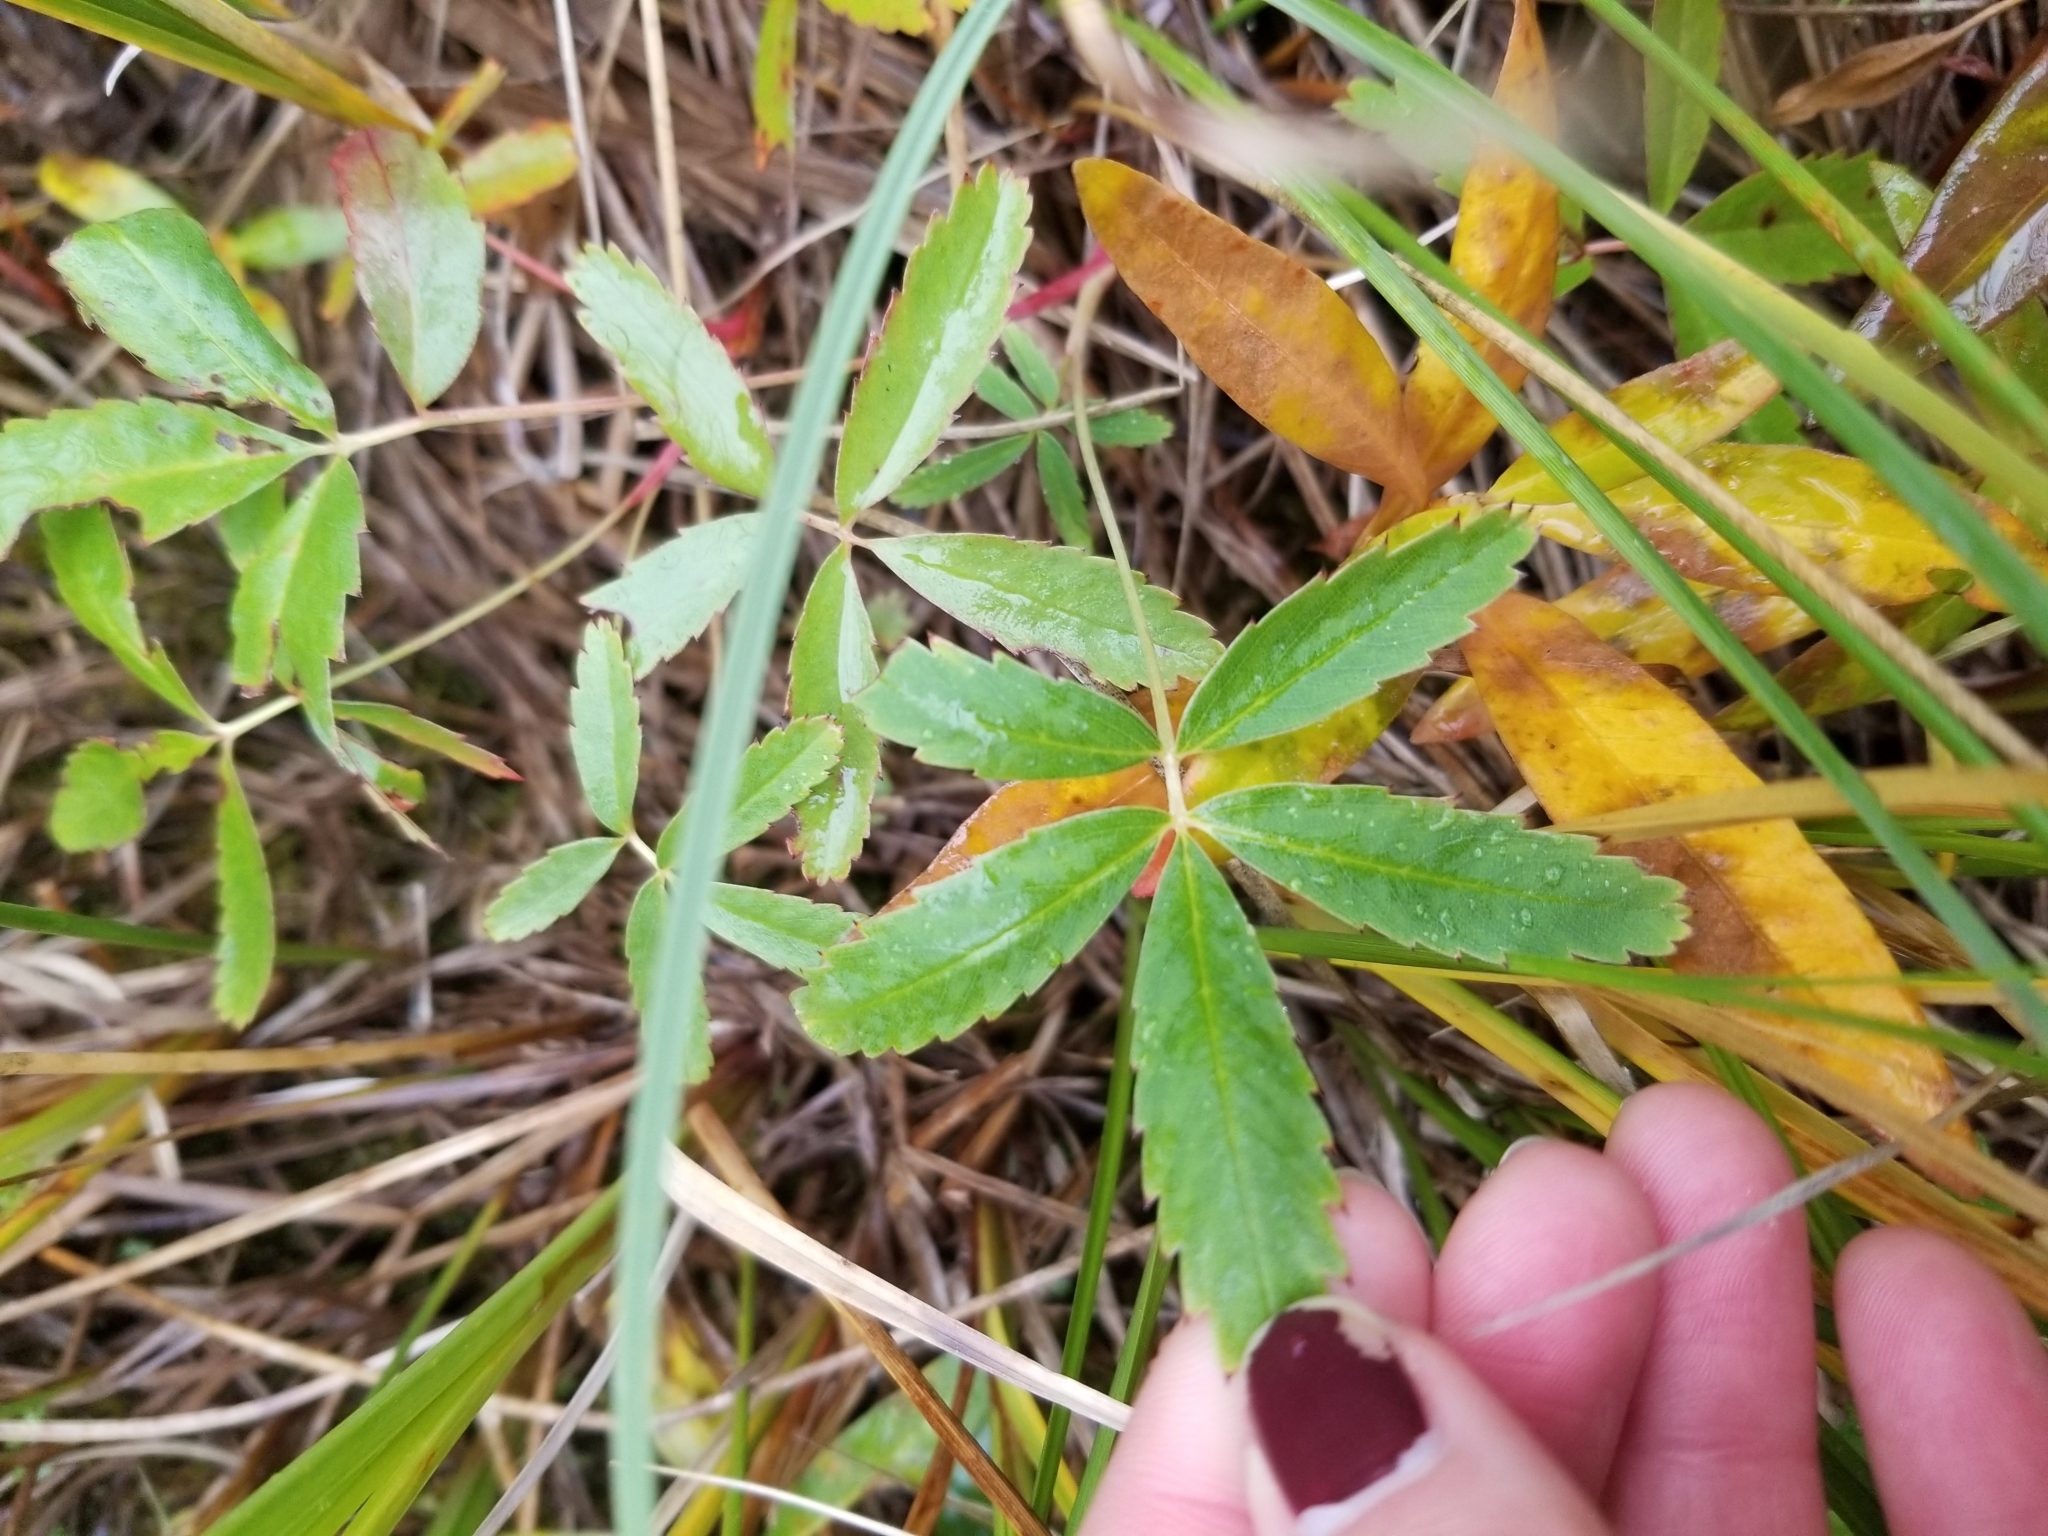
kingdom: Plantae
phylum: Tracheophyta
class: Magnoliopsida
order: Rosales
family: Rosaceae
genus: Comarum
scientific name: Comarum palustre
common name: Marsh cinquefoil
